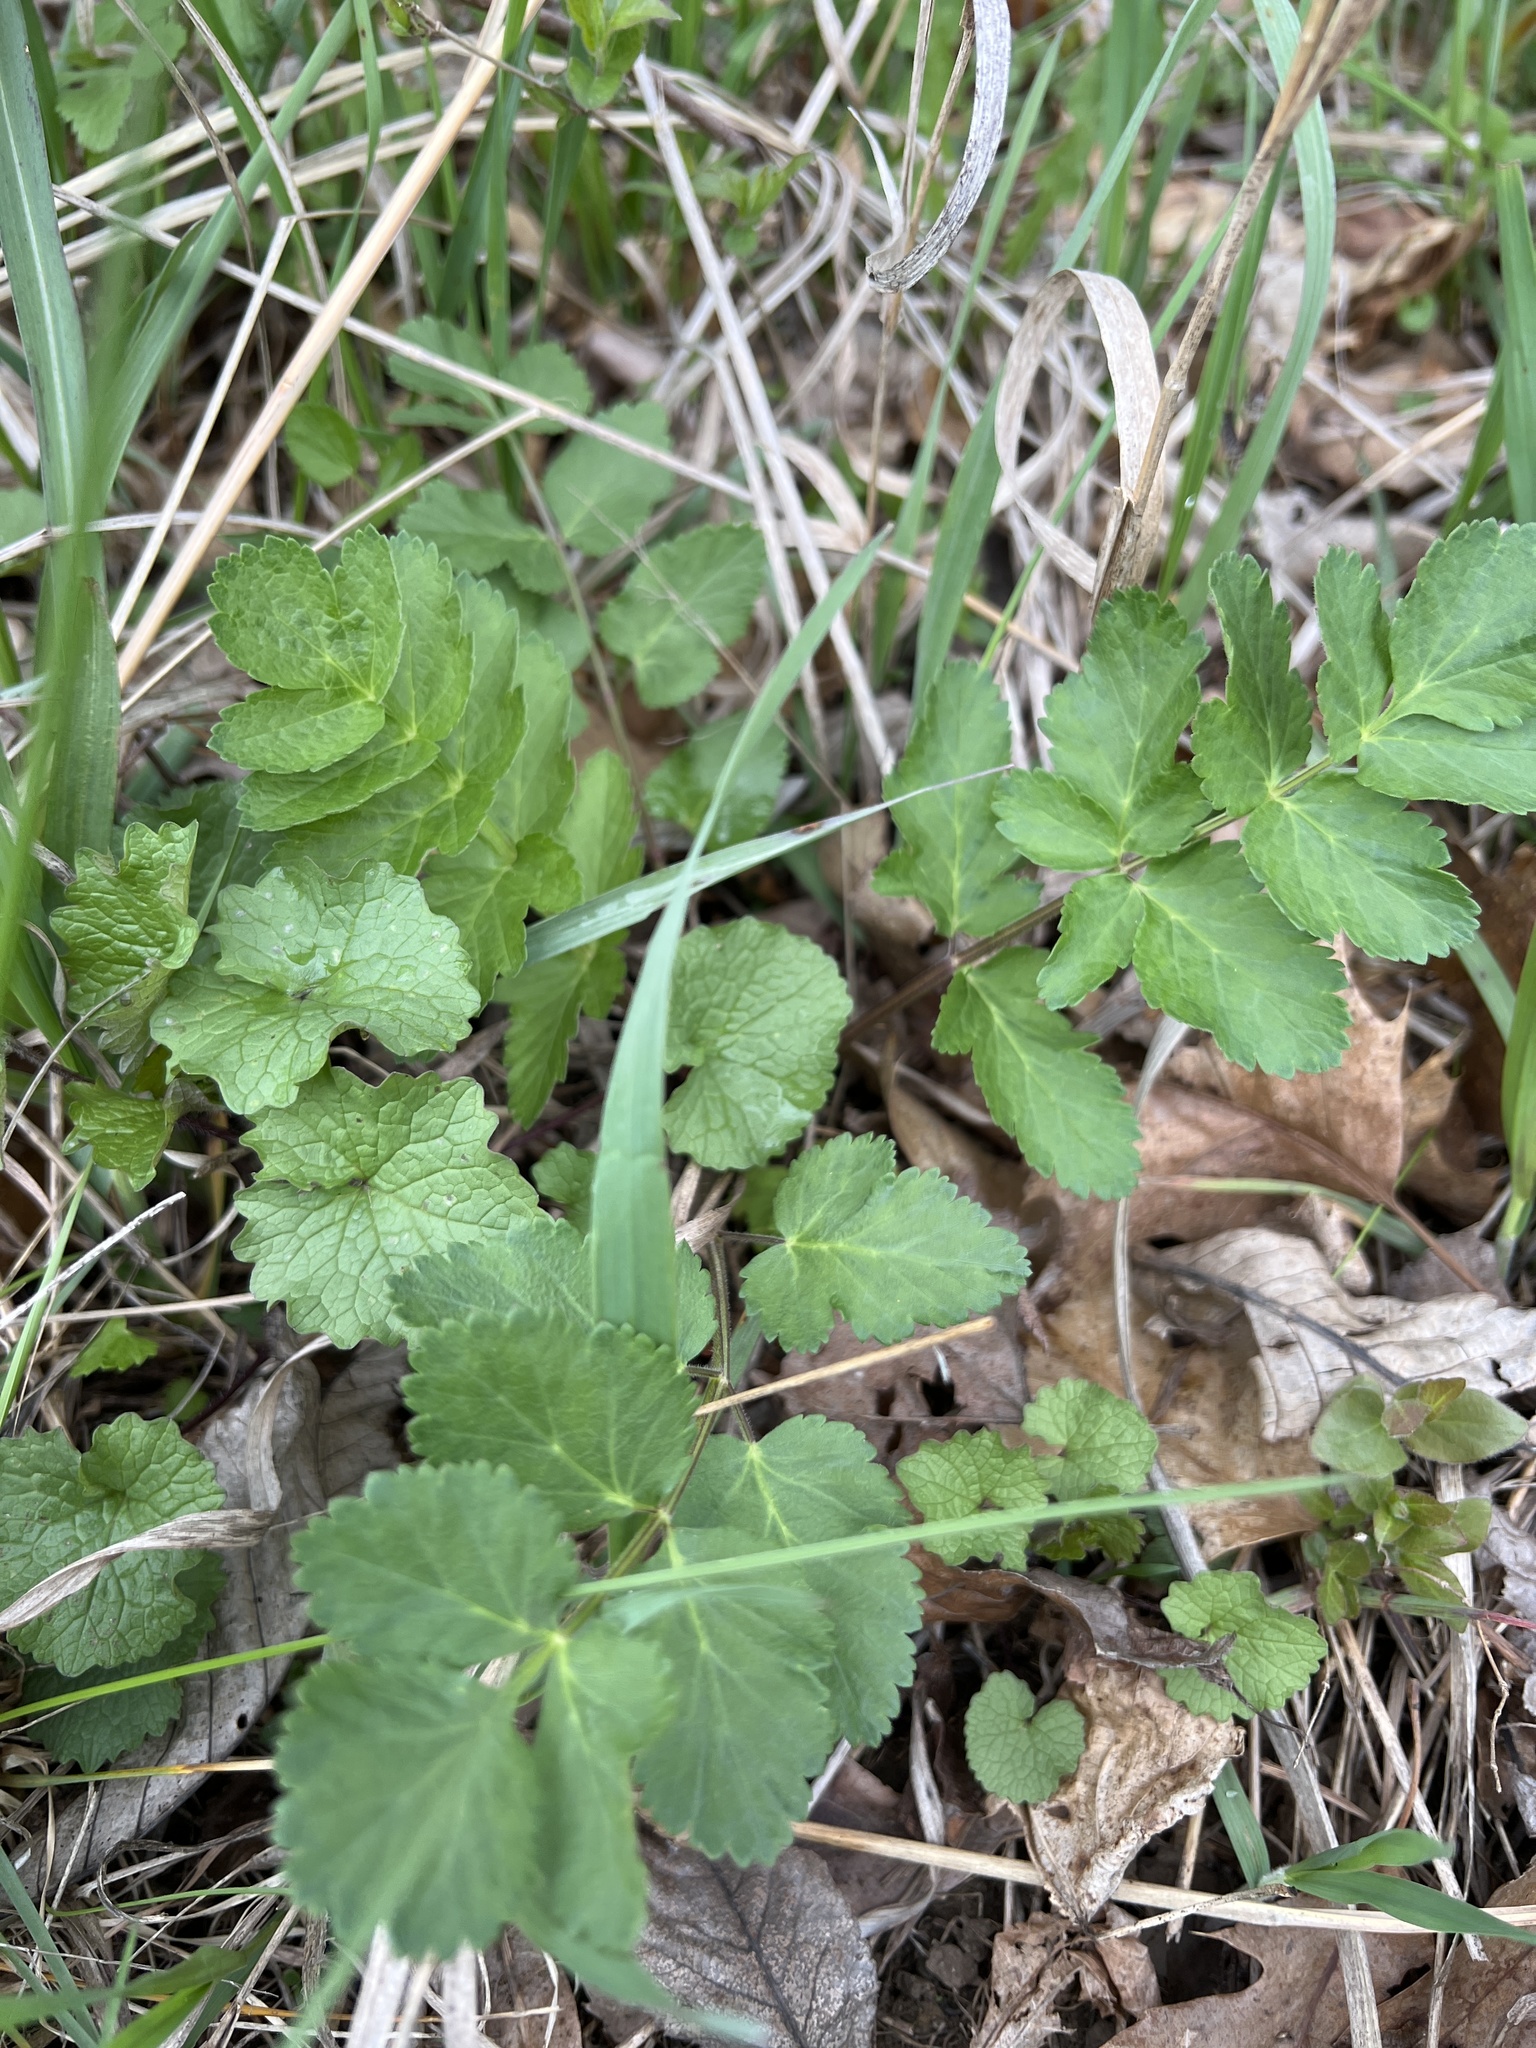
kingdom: Plantae
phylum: Tracheophyta
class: Magnoliopsida
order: Apiales
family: Apiaceae
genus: Pastinaca
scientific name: Pastinaca sativa
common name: Wild parsnip
